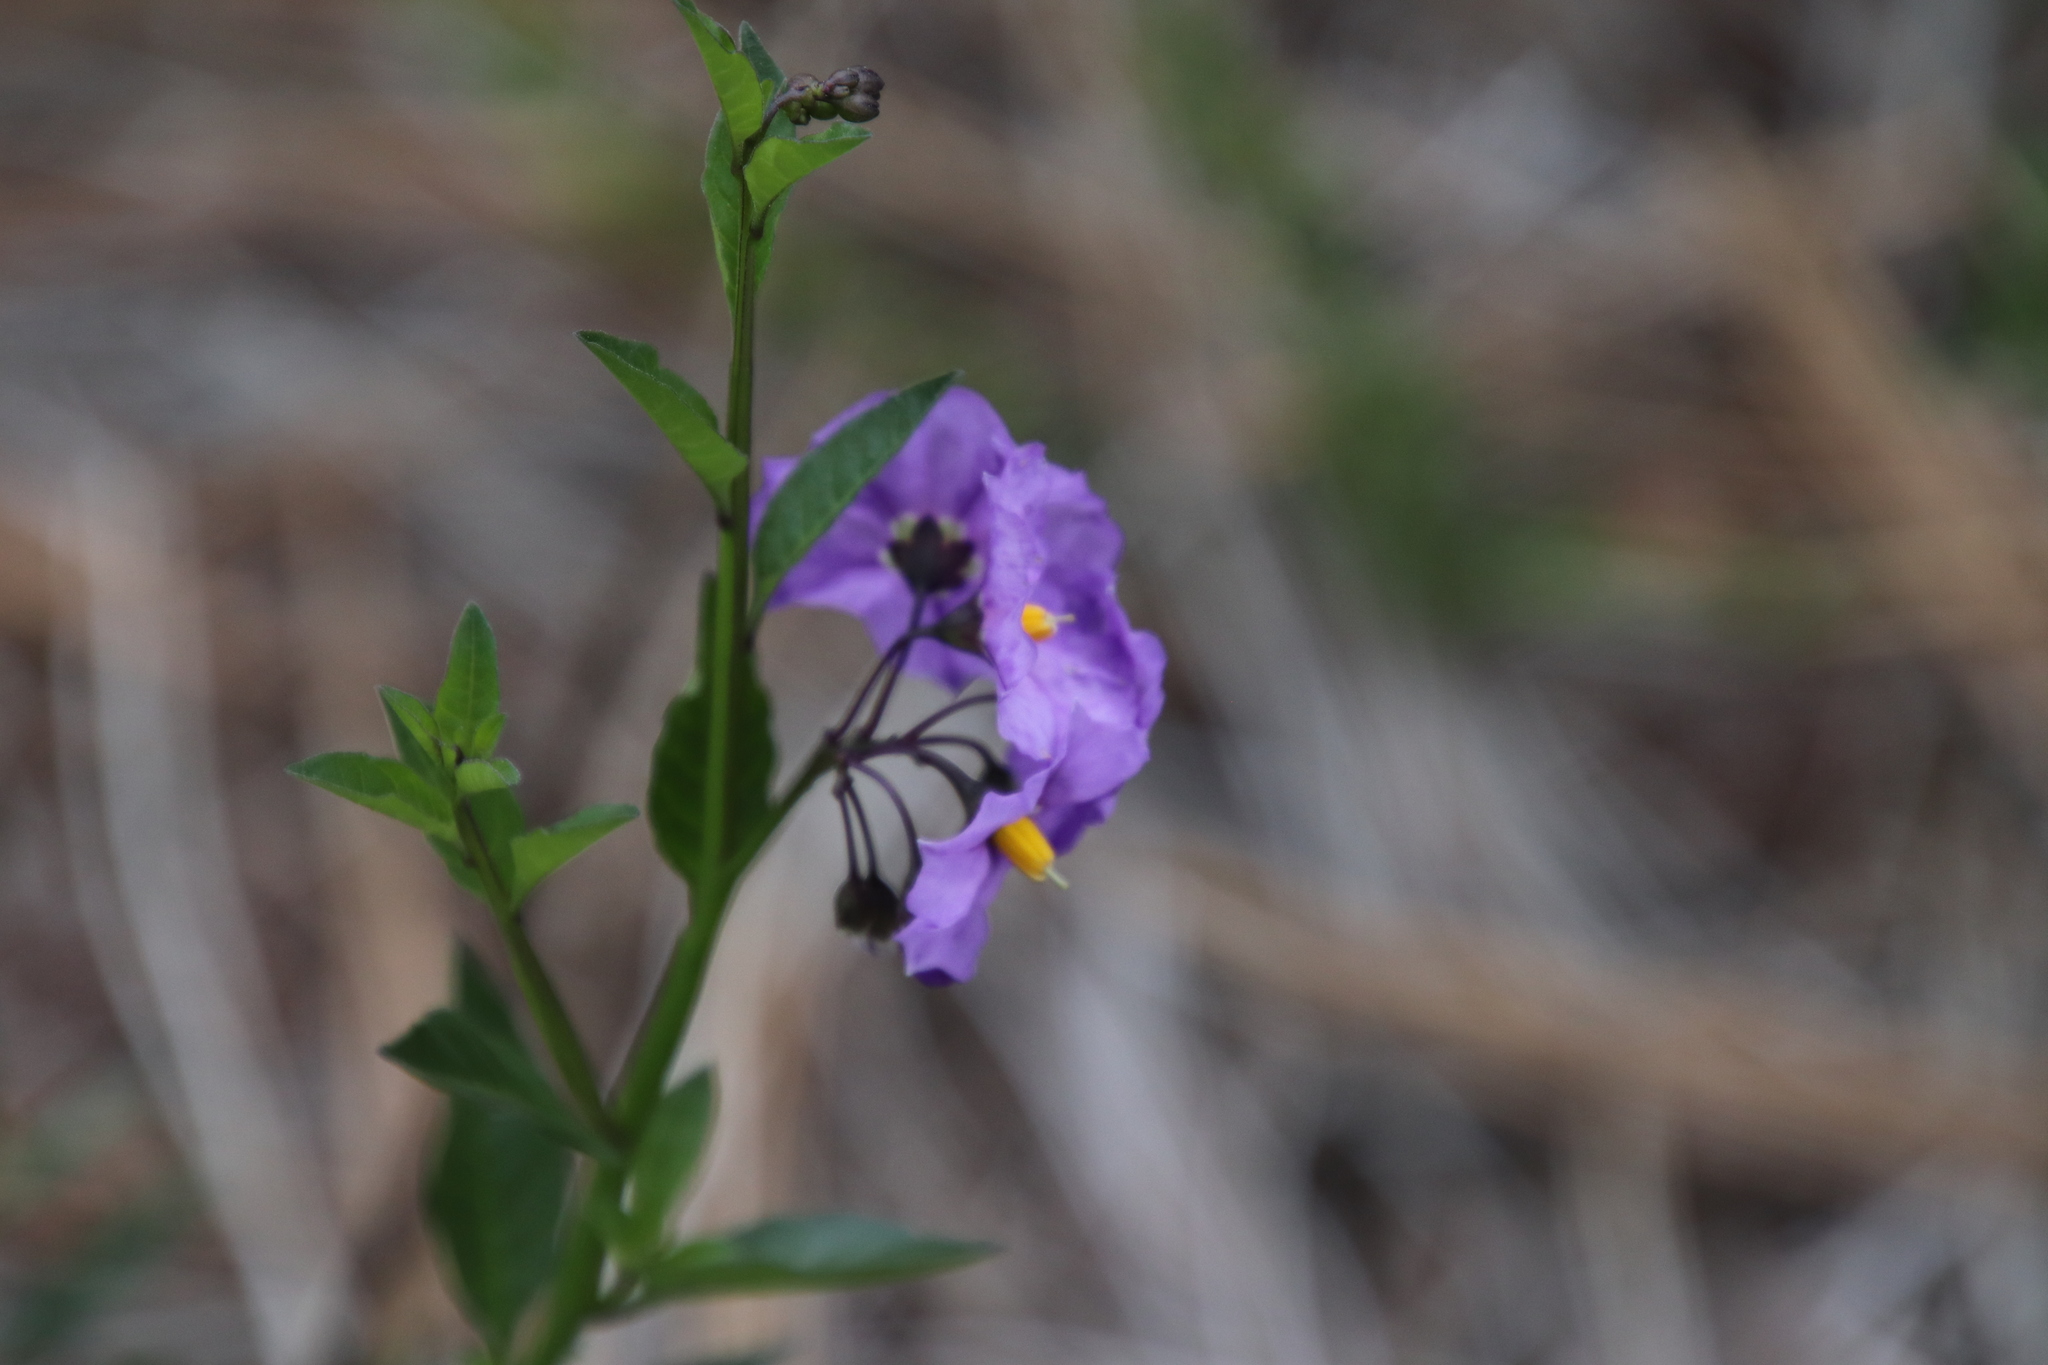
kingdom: Plantae
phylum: Tracheophyta
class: Magnoliopsida
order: Solanales
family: Solanaceae
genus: Solanum
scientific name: Solanum umbelliferum
